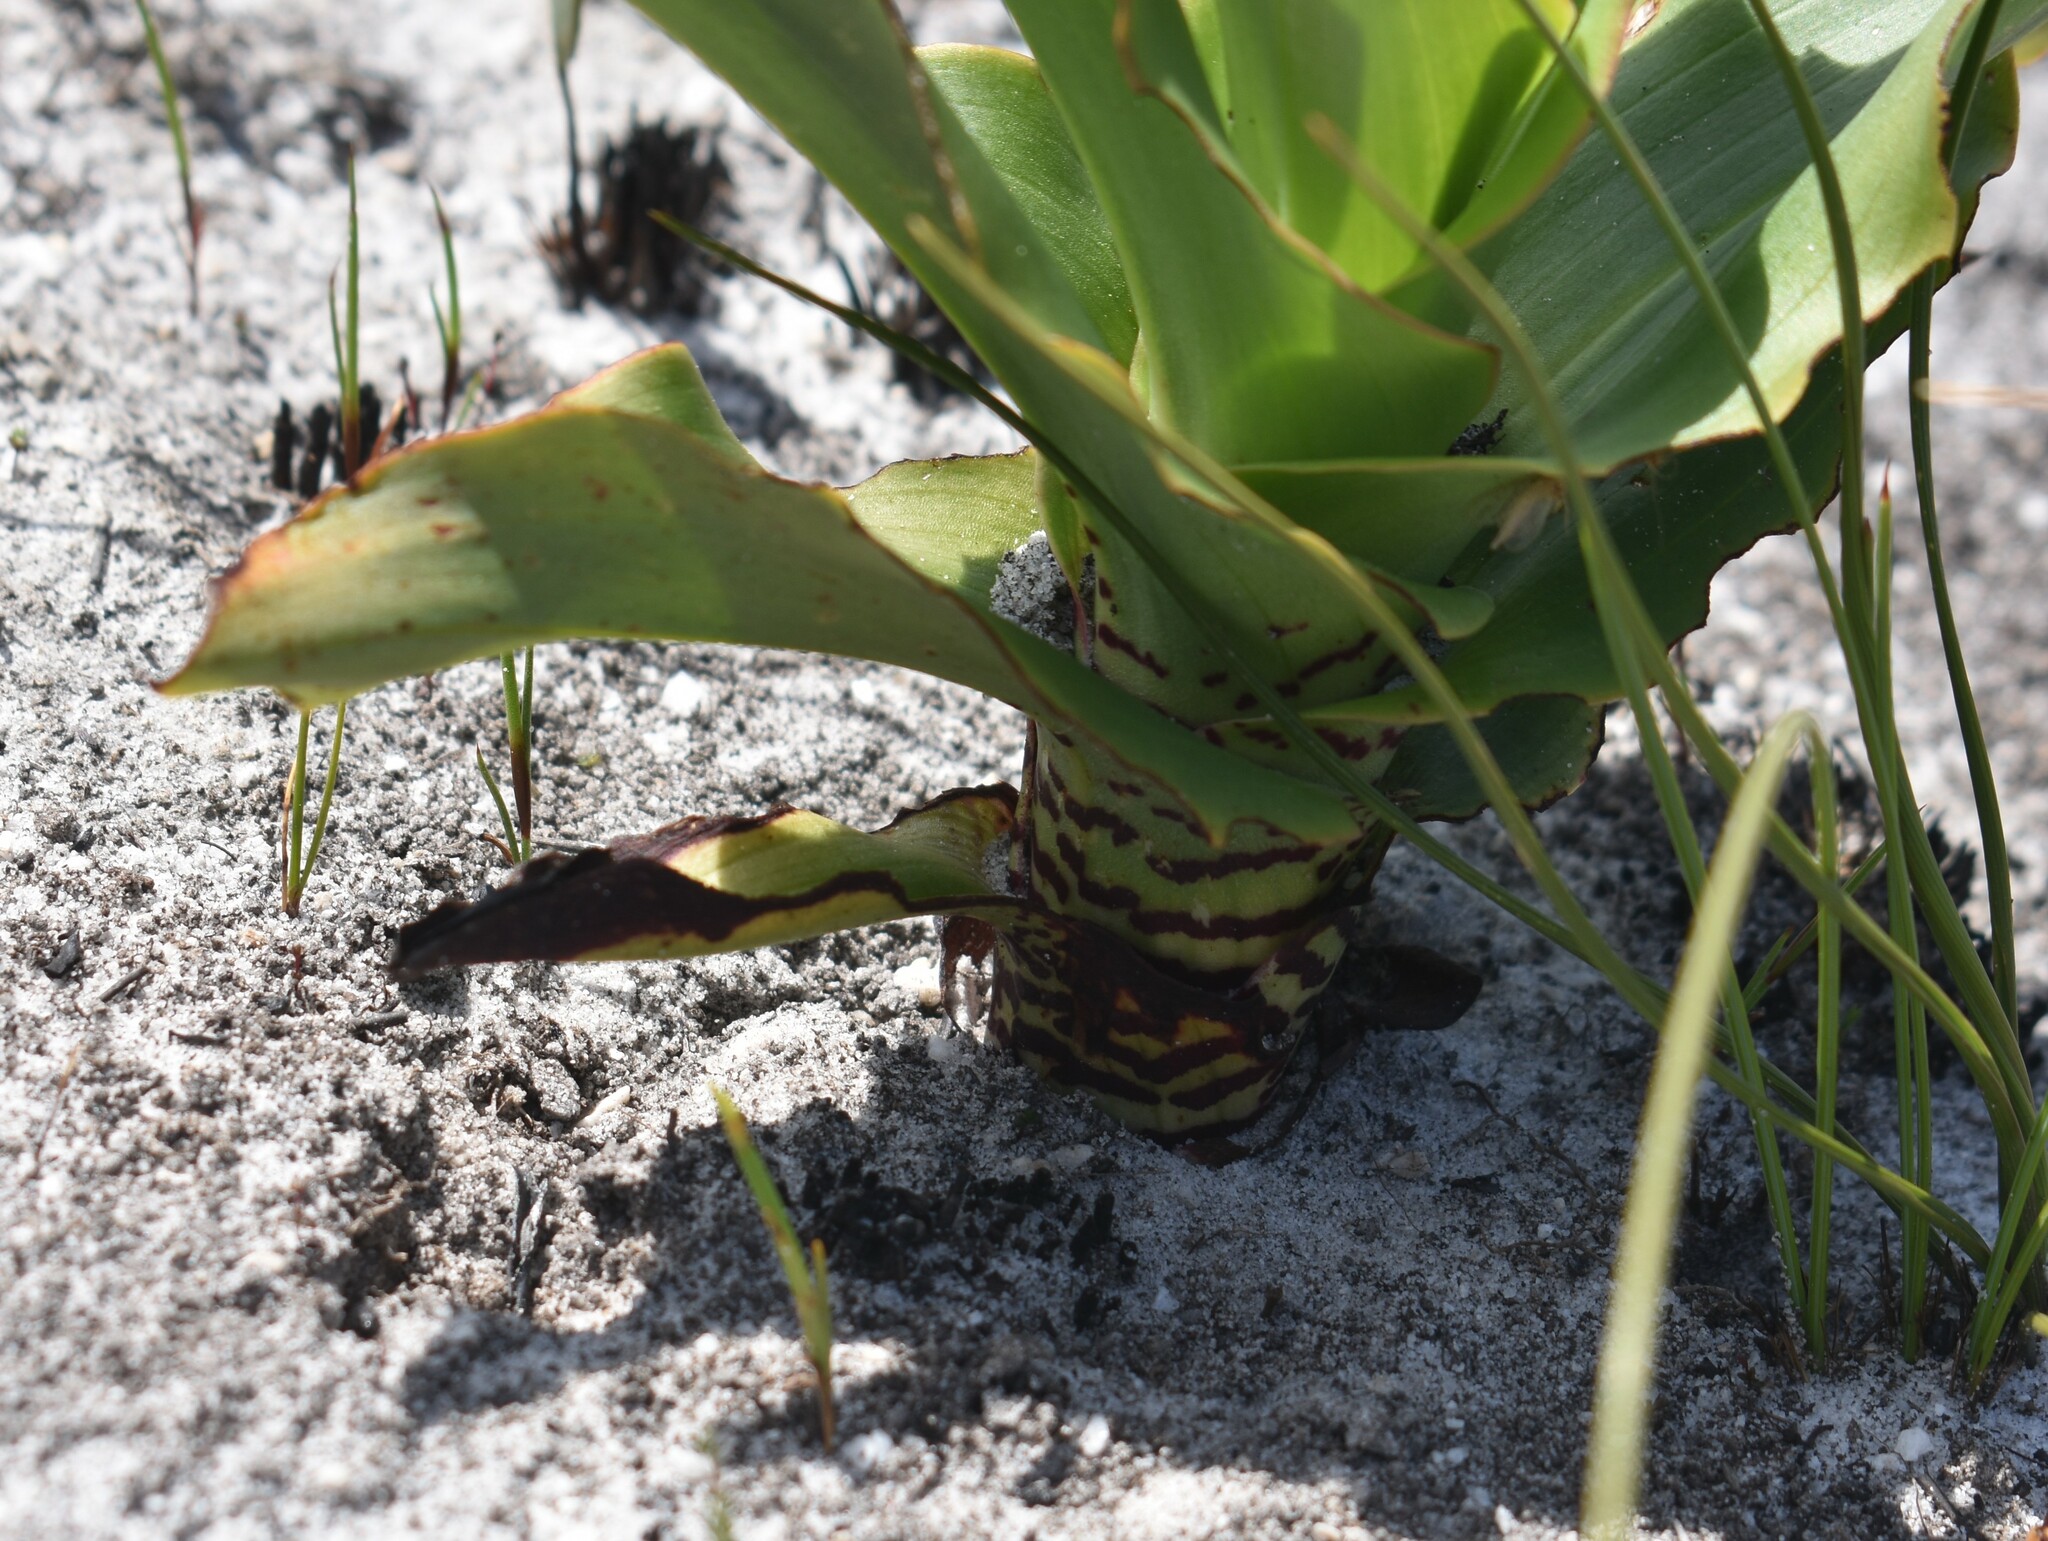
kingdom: Plantae
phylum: Tracheophyta
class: Liliopsida
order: Asparagales
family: Orchidaceae
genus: Disa
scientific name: Disa cornuta
